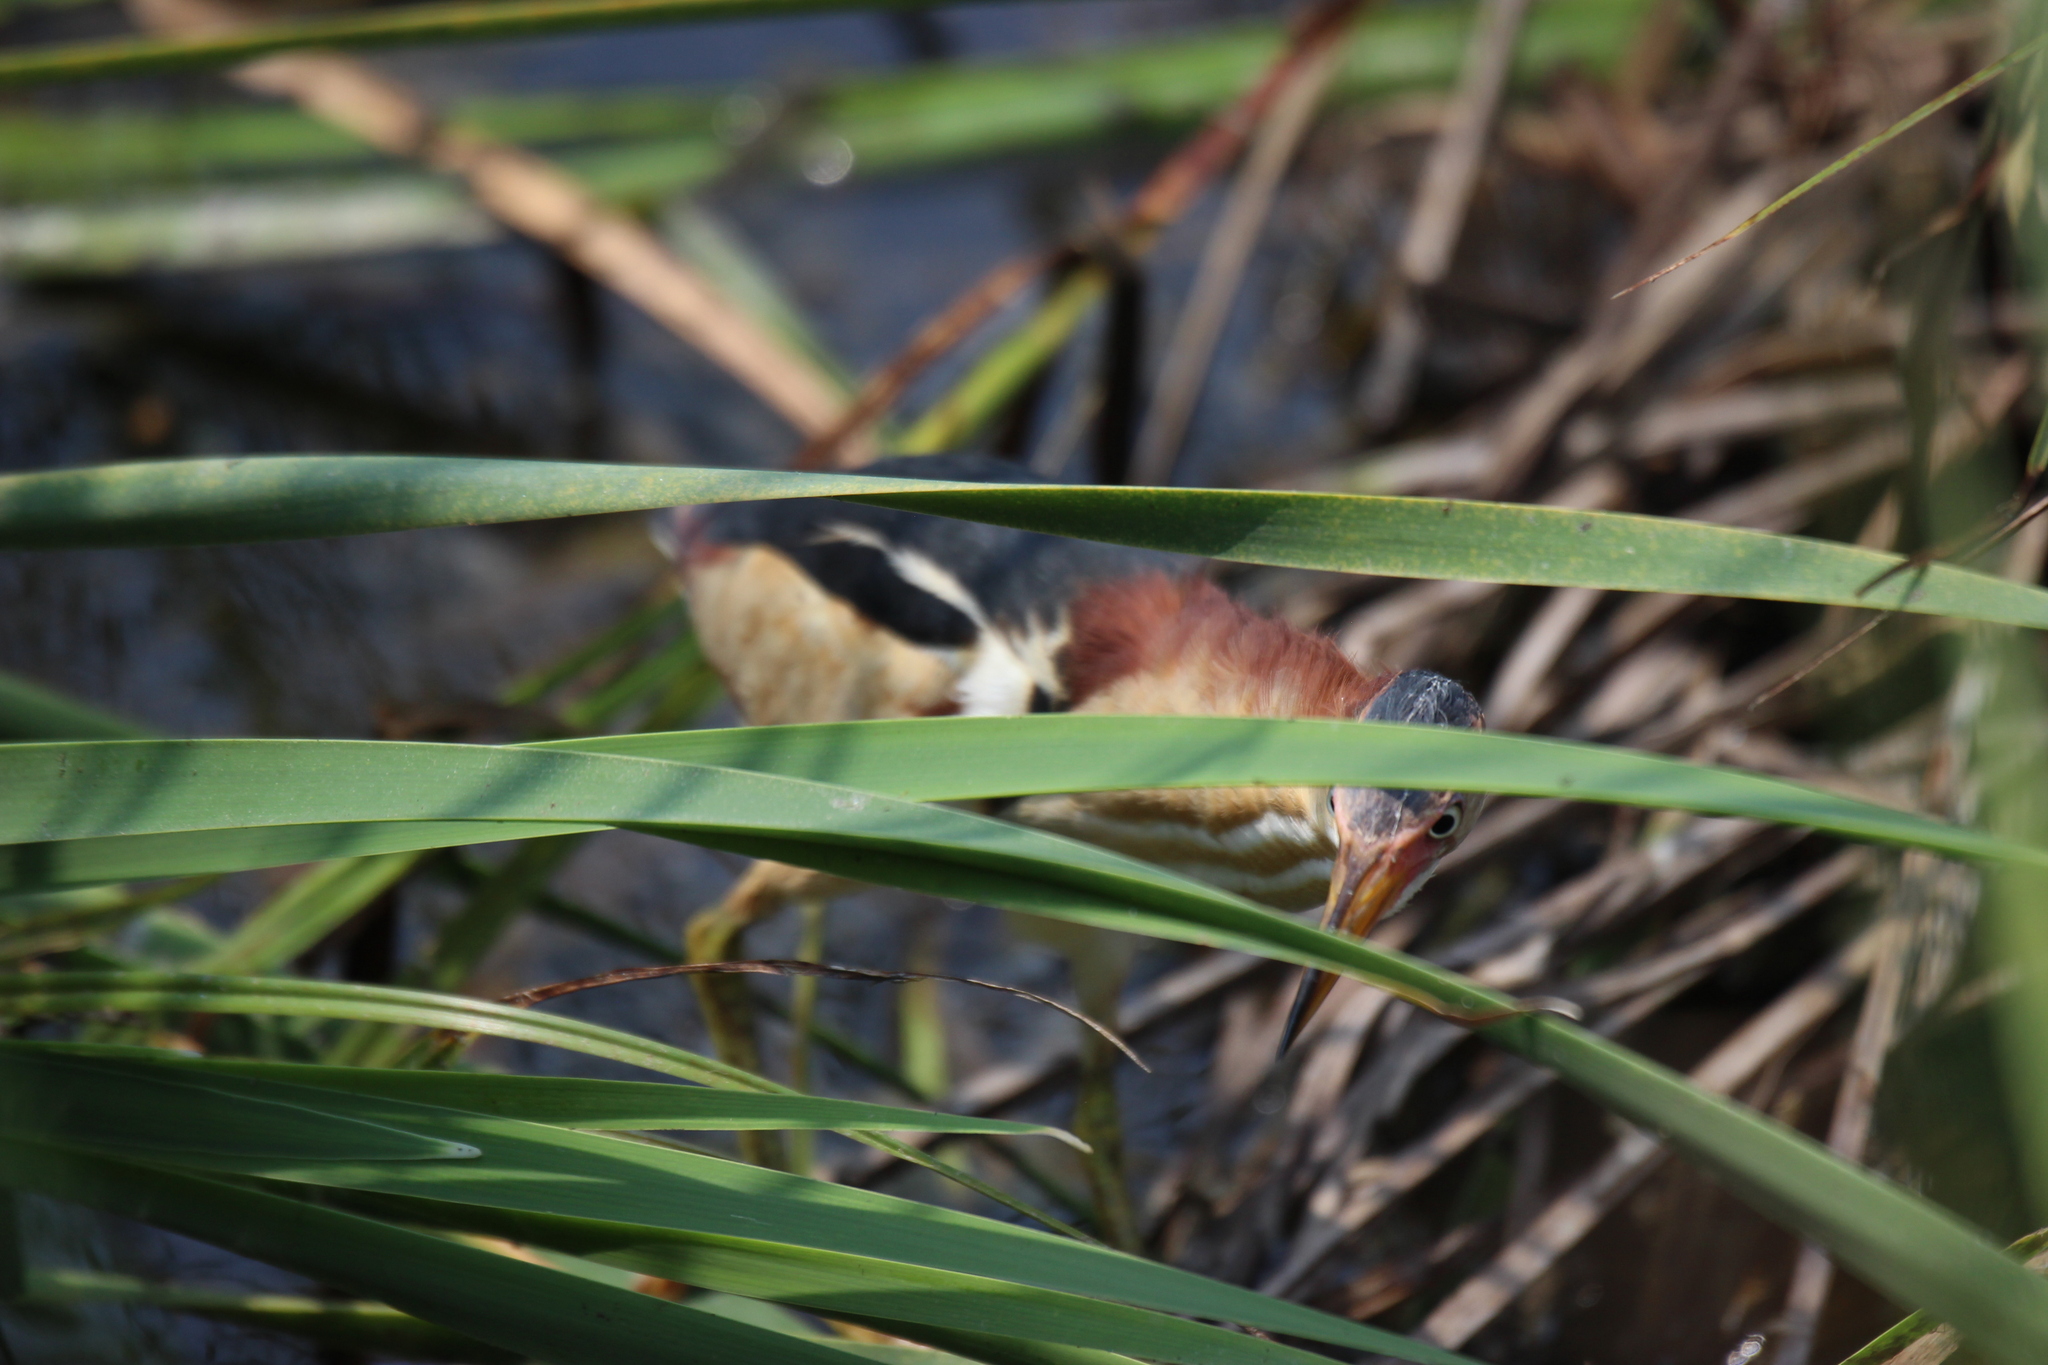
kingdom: Animalia
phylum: Chordata
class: Aves
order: Pelecaniformes
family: Ardeidae
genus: Ixobrychus
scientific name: Ixobrychus exilis
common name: Least bittern
